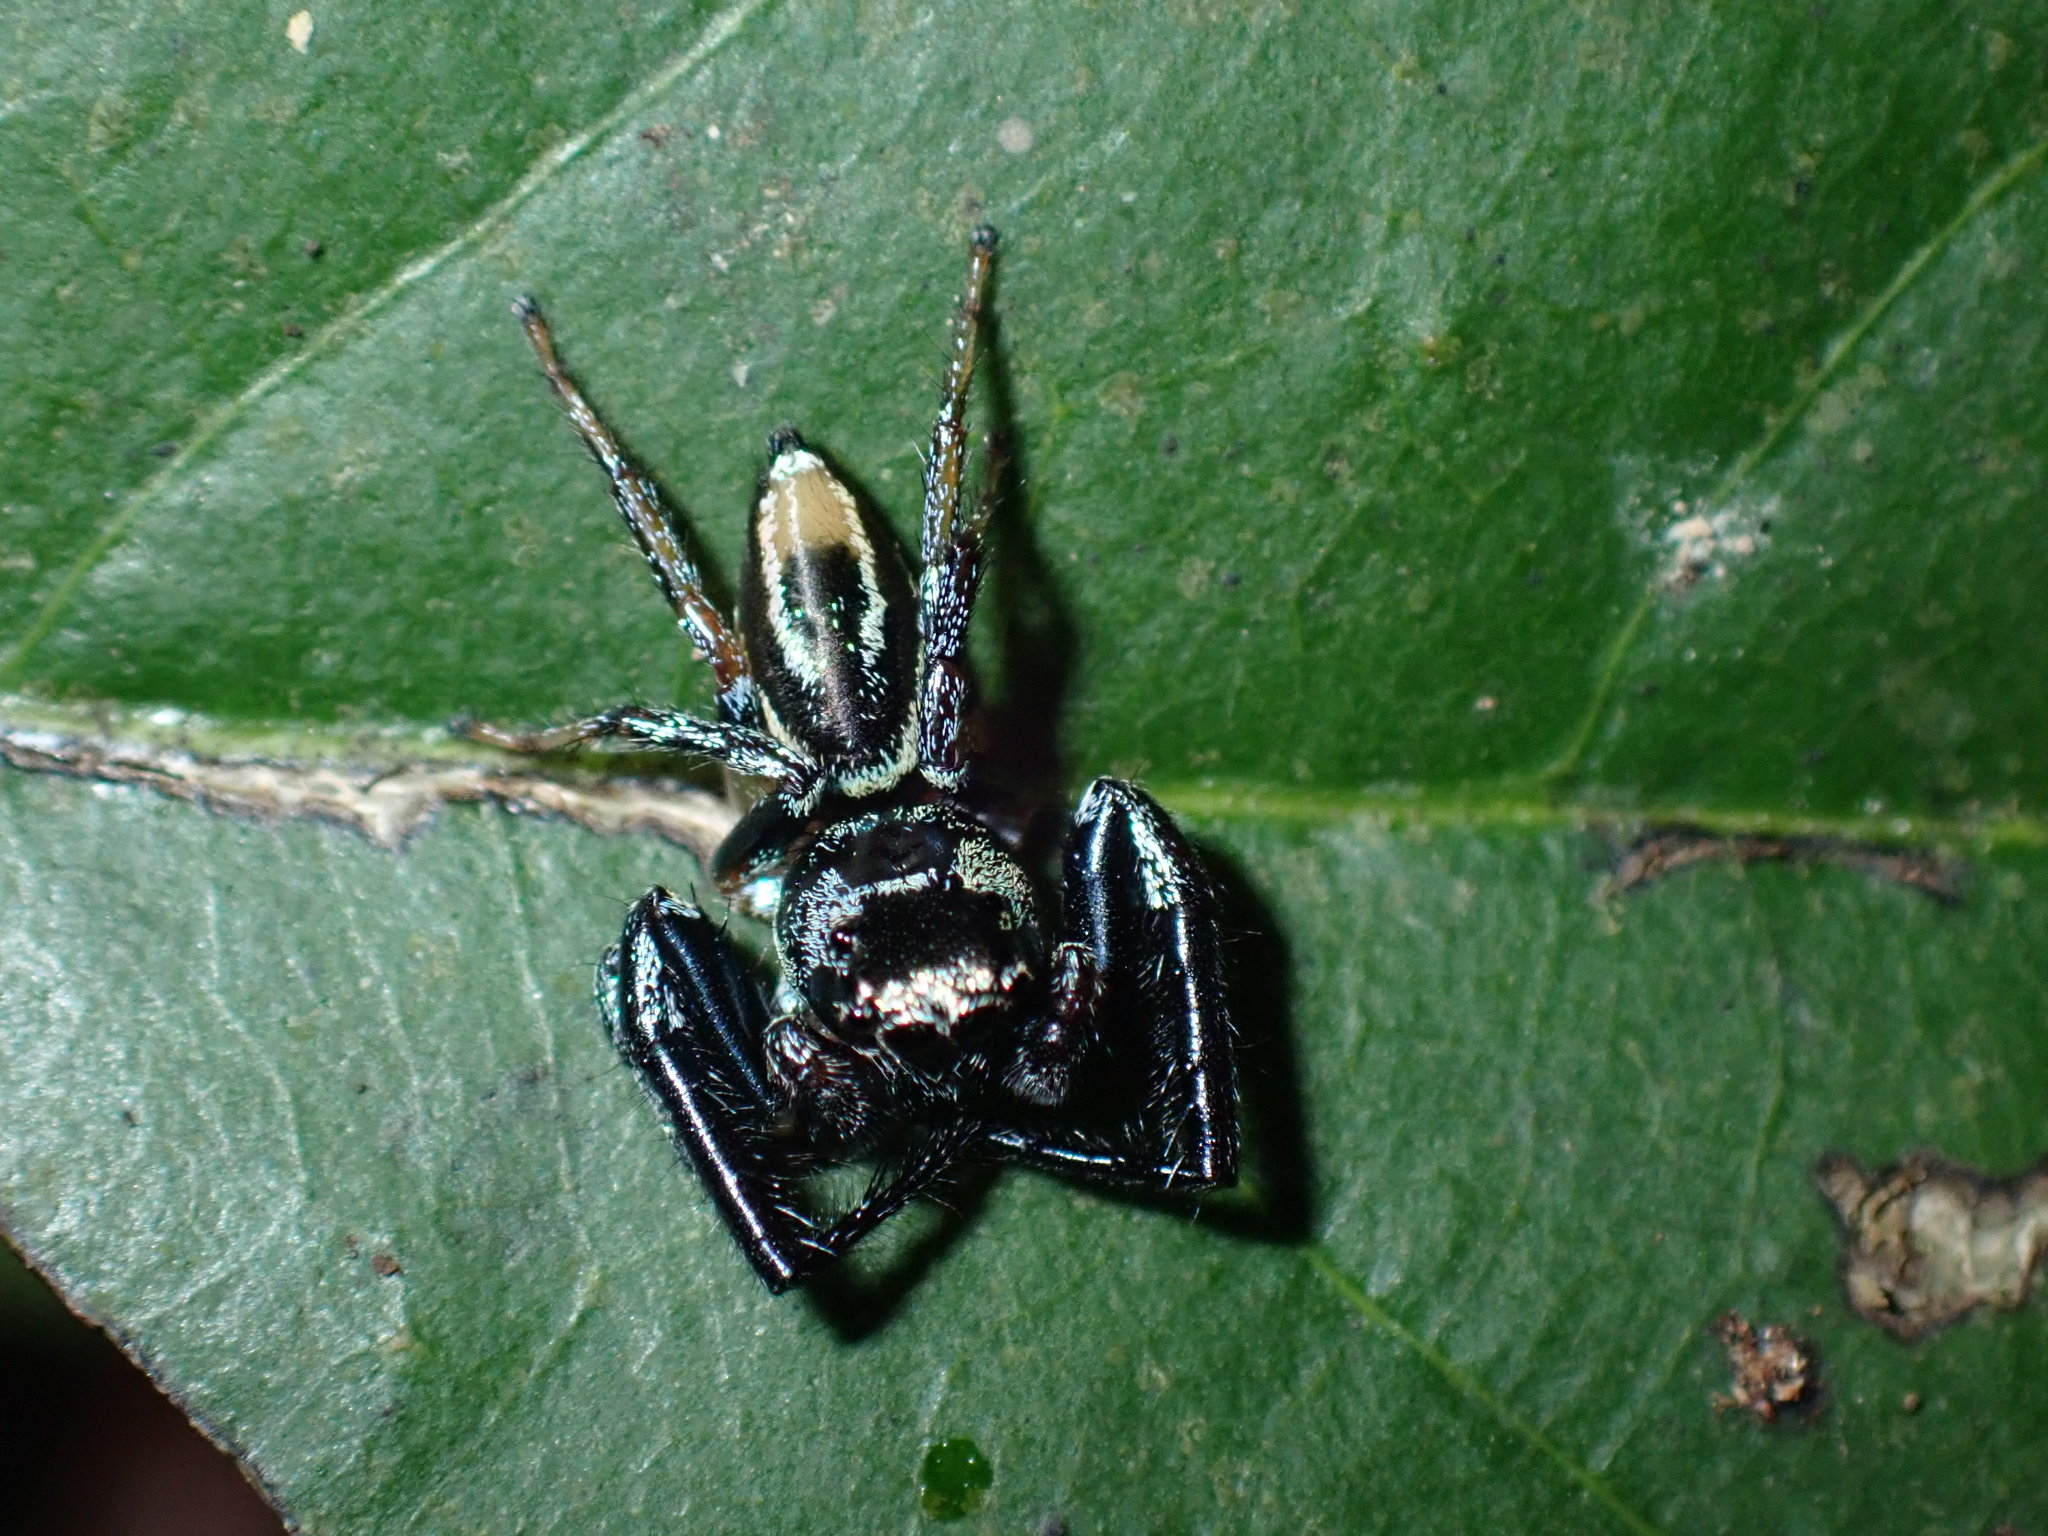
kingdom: Animalia
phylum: Arthropoda
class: Arachnida
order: Araneae
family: Salticidae
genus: Thiania
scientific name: Thiania bhamoensis
